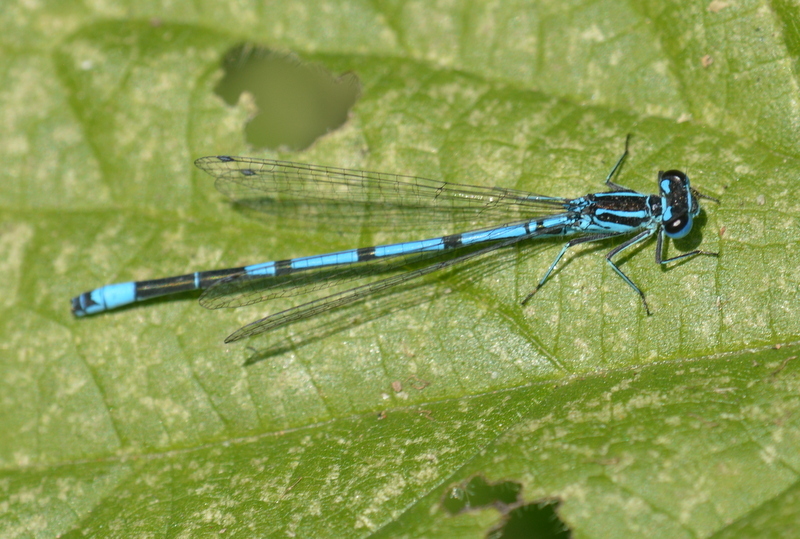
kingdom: Animalia
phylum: Arthropoda
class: Insecta
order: Odonata
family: Coenagrionidae
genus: Coenagrion
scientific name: Coenagrion puella
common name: Azure damselfly
